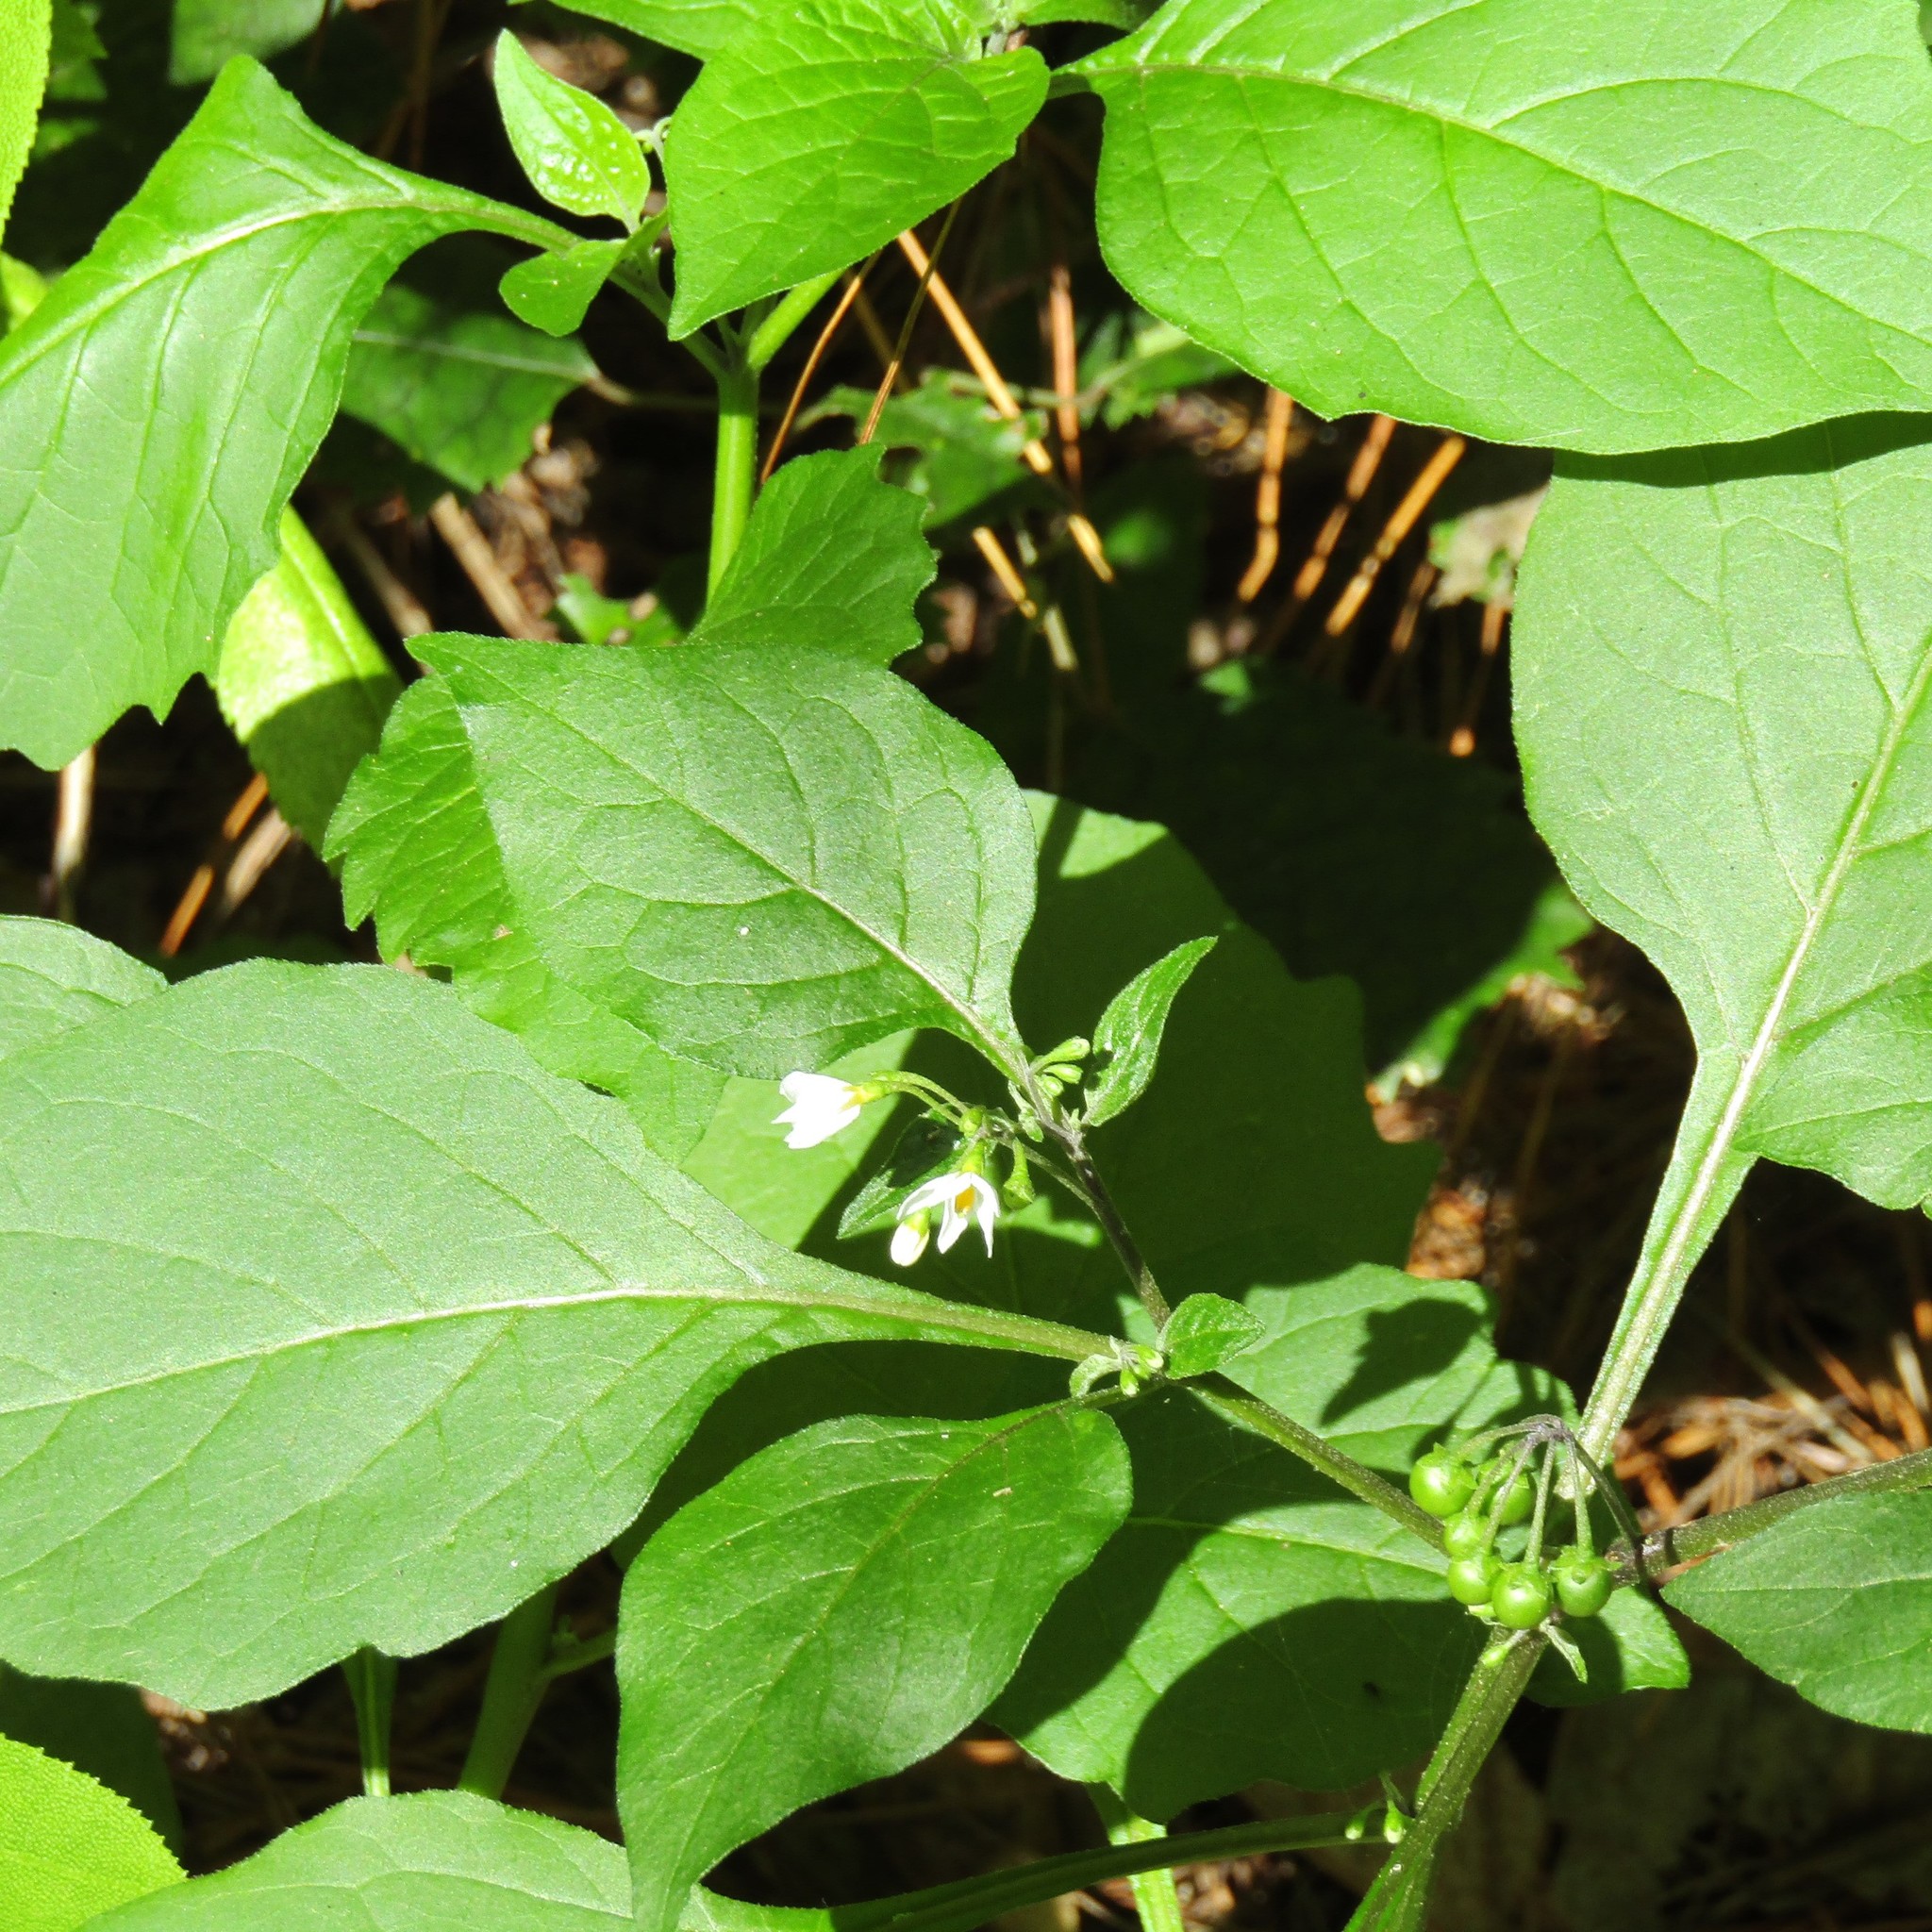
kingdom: Plantae
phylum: Tracheophyta
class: Magnoliopsida
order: Solanales
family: Solanaceae
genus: Solanum
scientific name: Solanum nigrum
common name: Black nightshade
